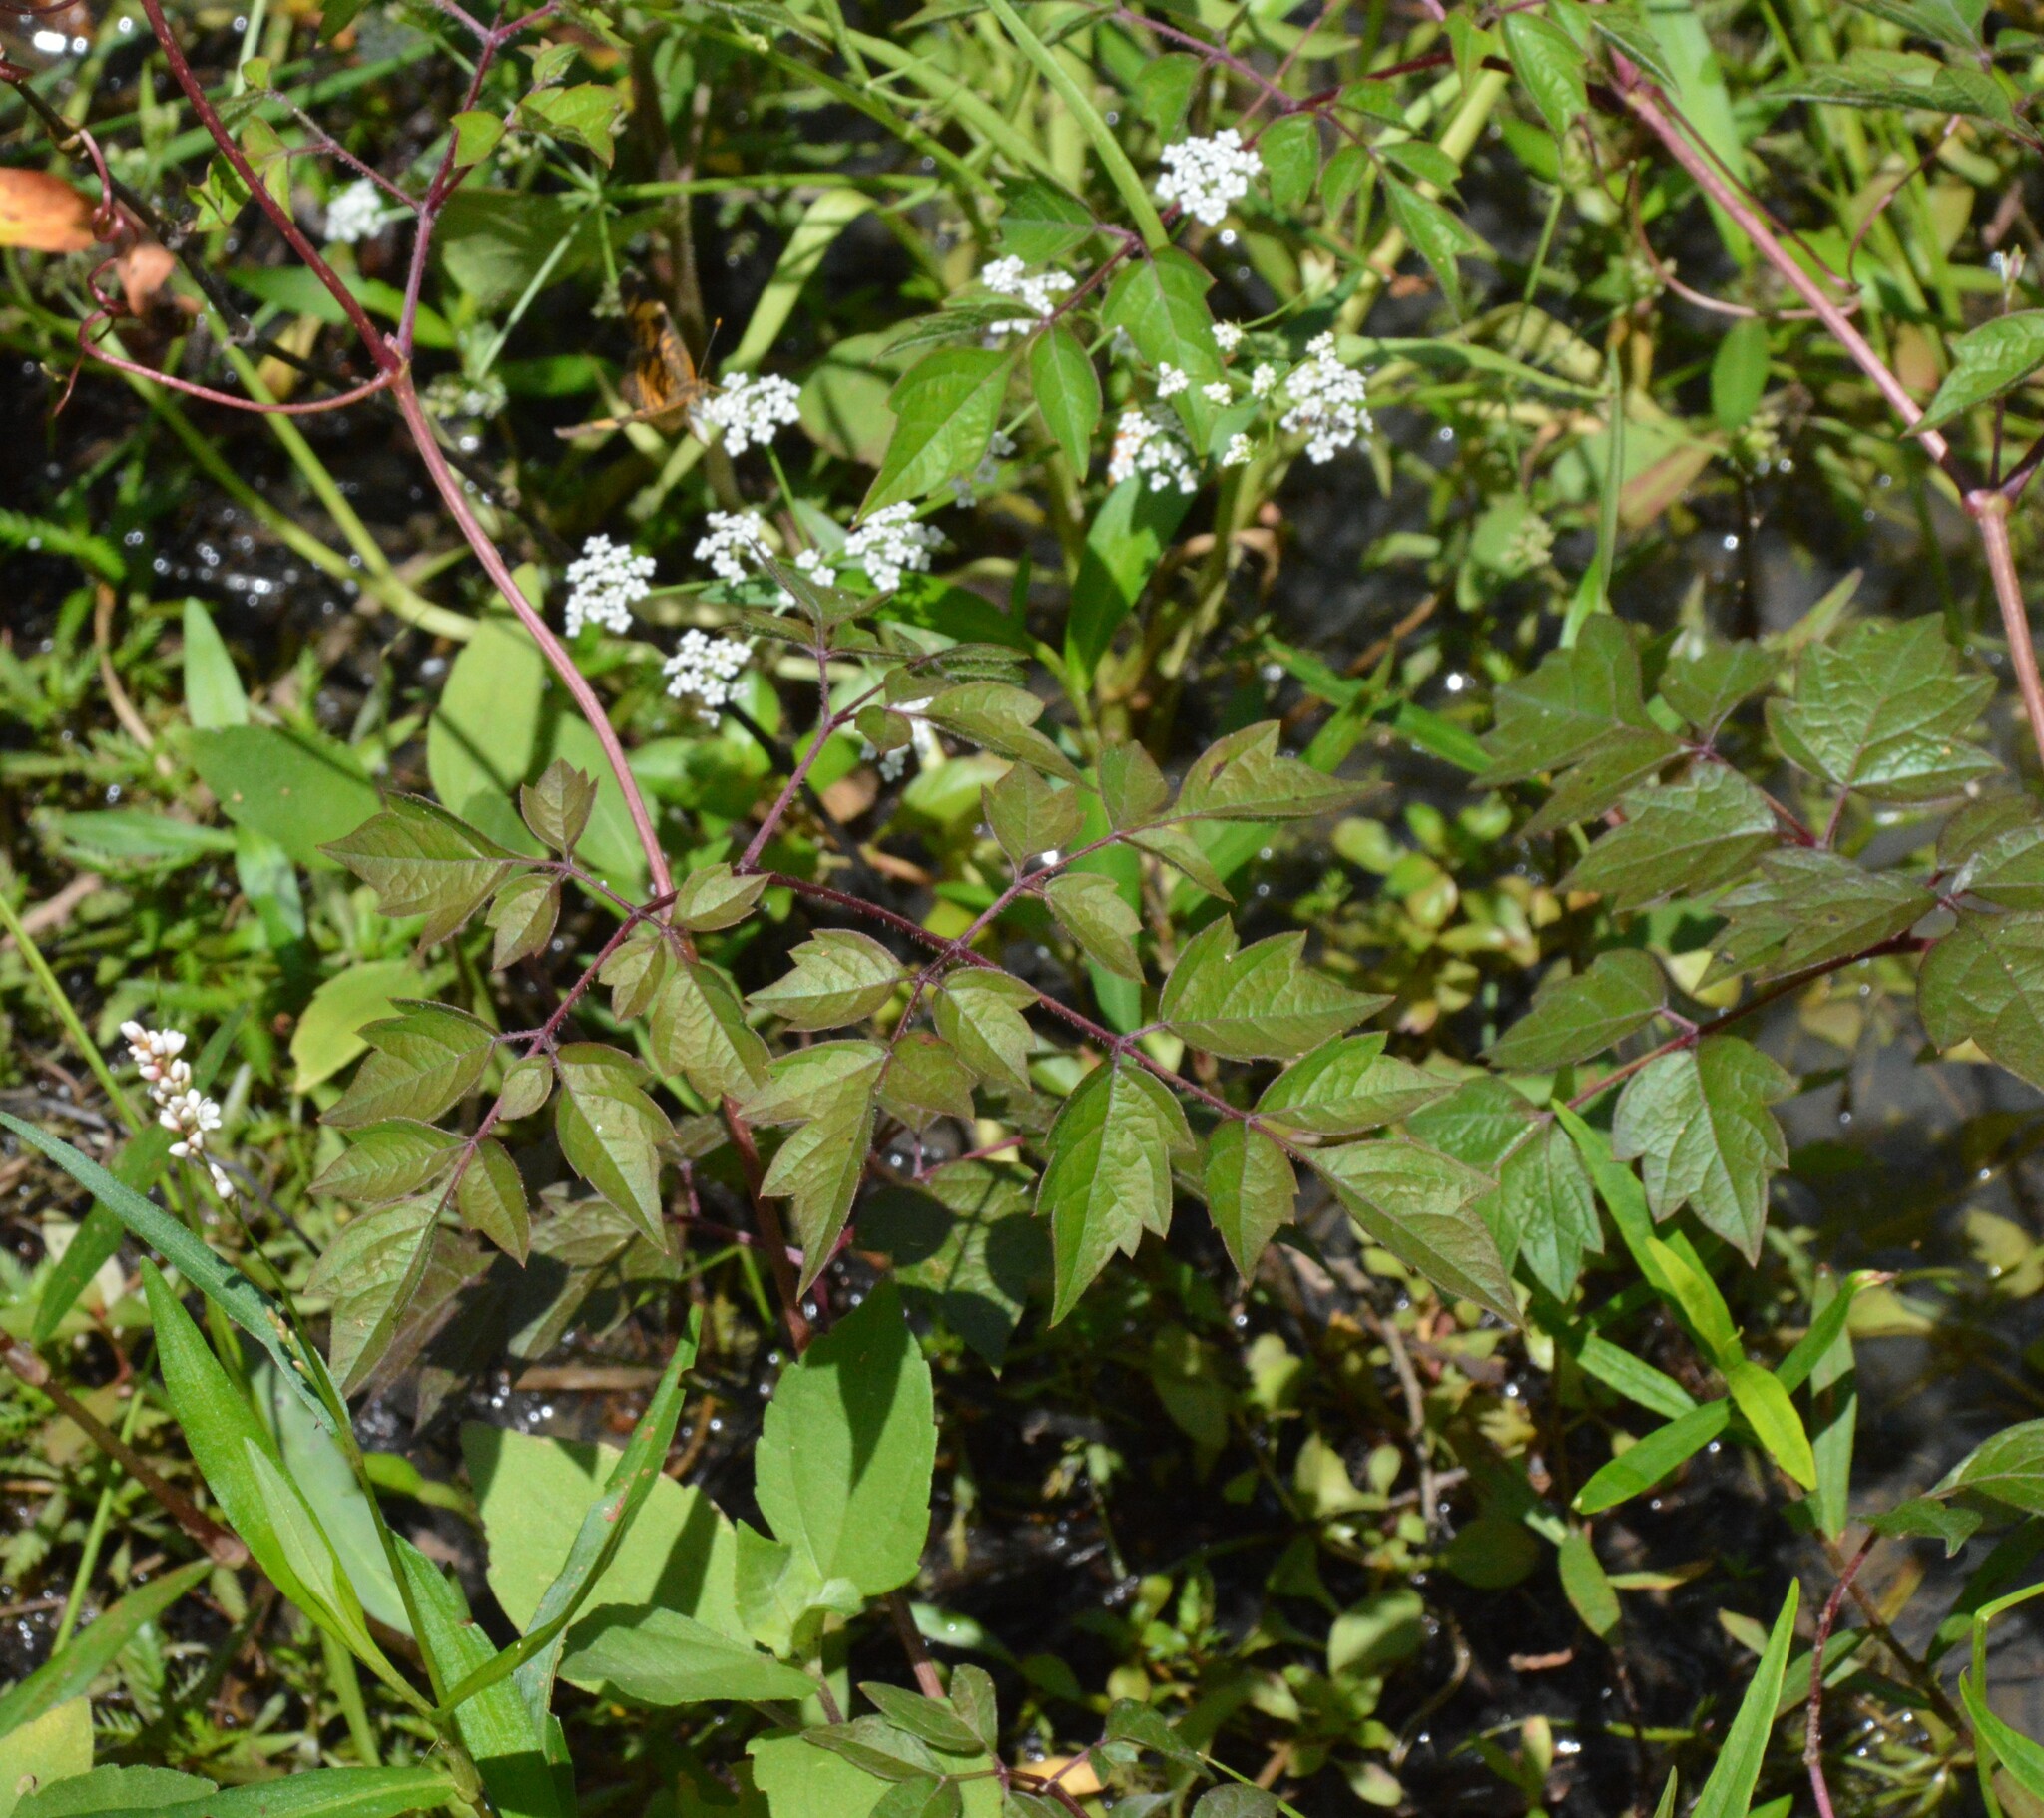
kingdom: Plantae
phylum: Tracheophyta
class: Magnoliopsida
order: Vitales
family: Vitaceae
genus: Nekemias
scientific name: Nekemias arborea
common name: Peppervine
